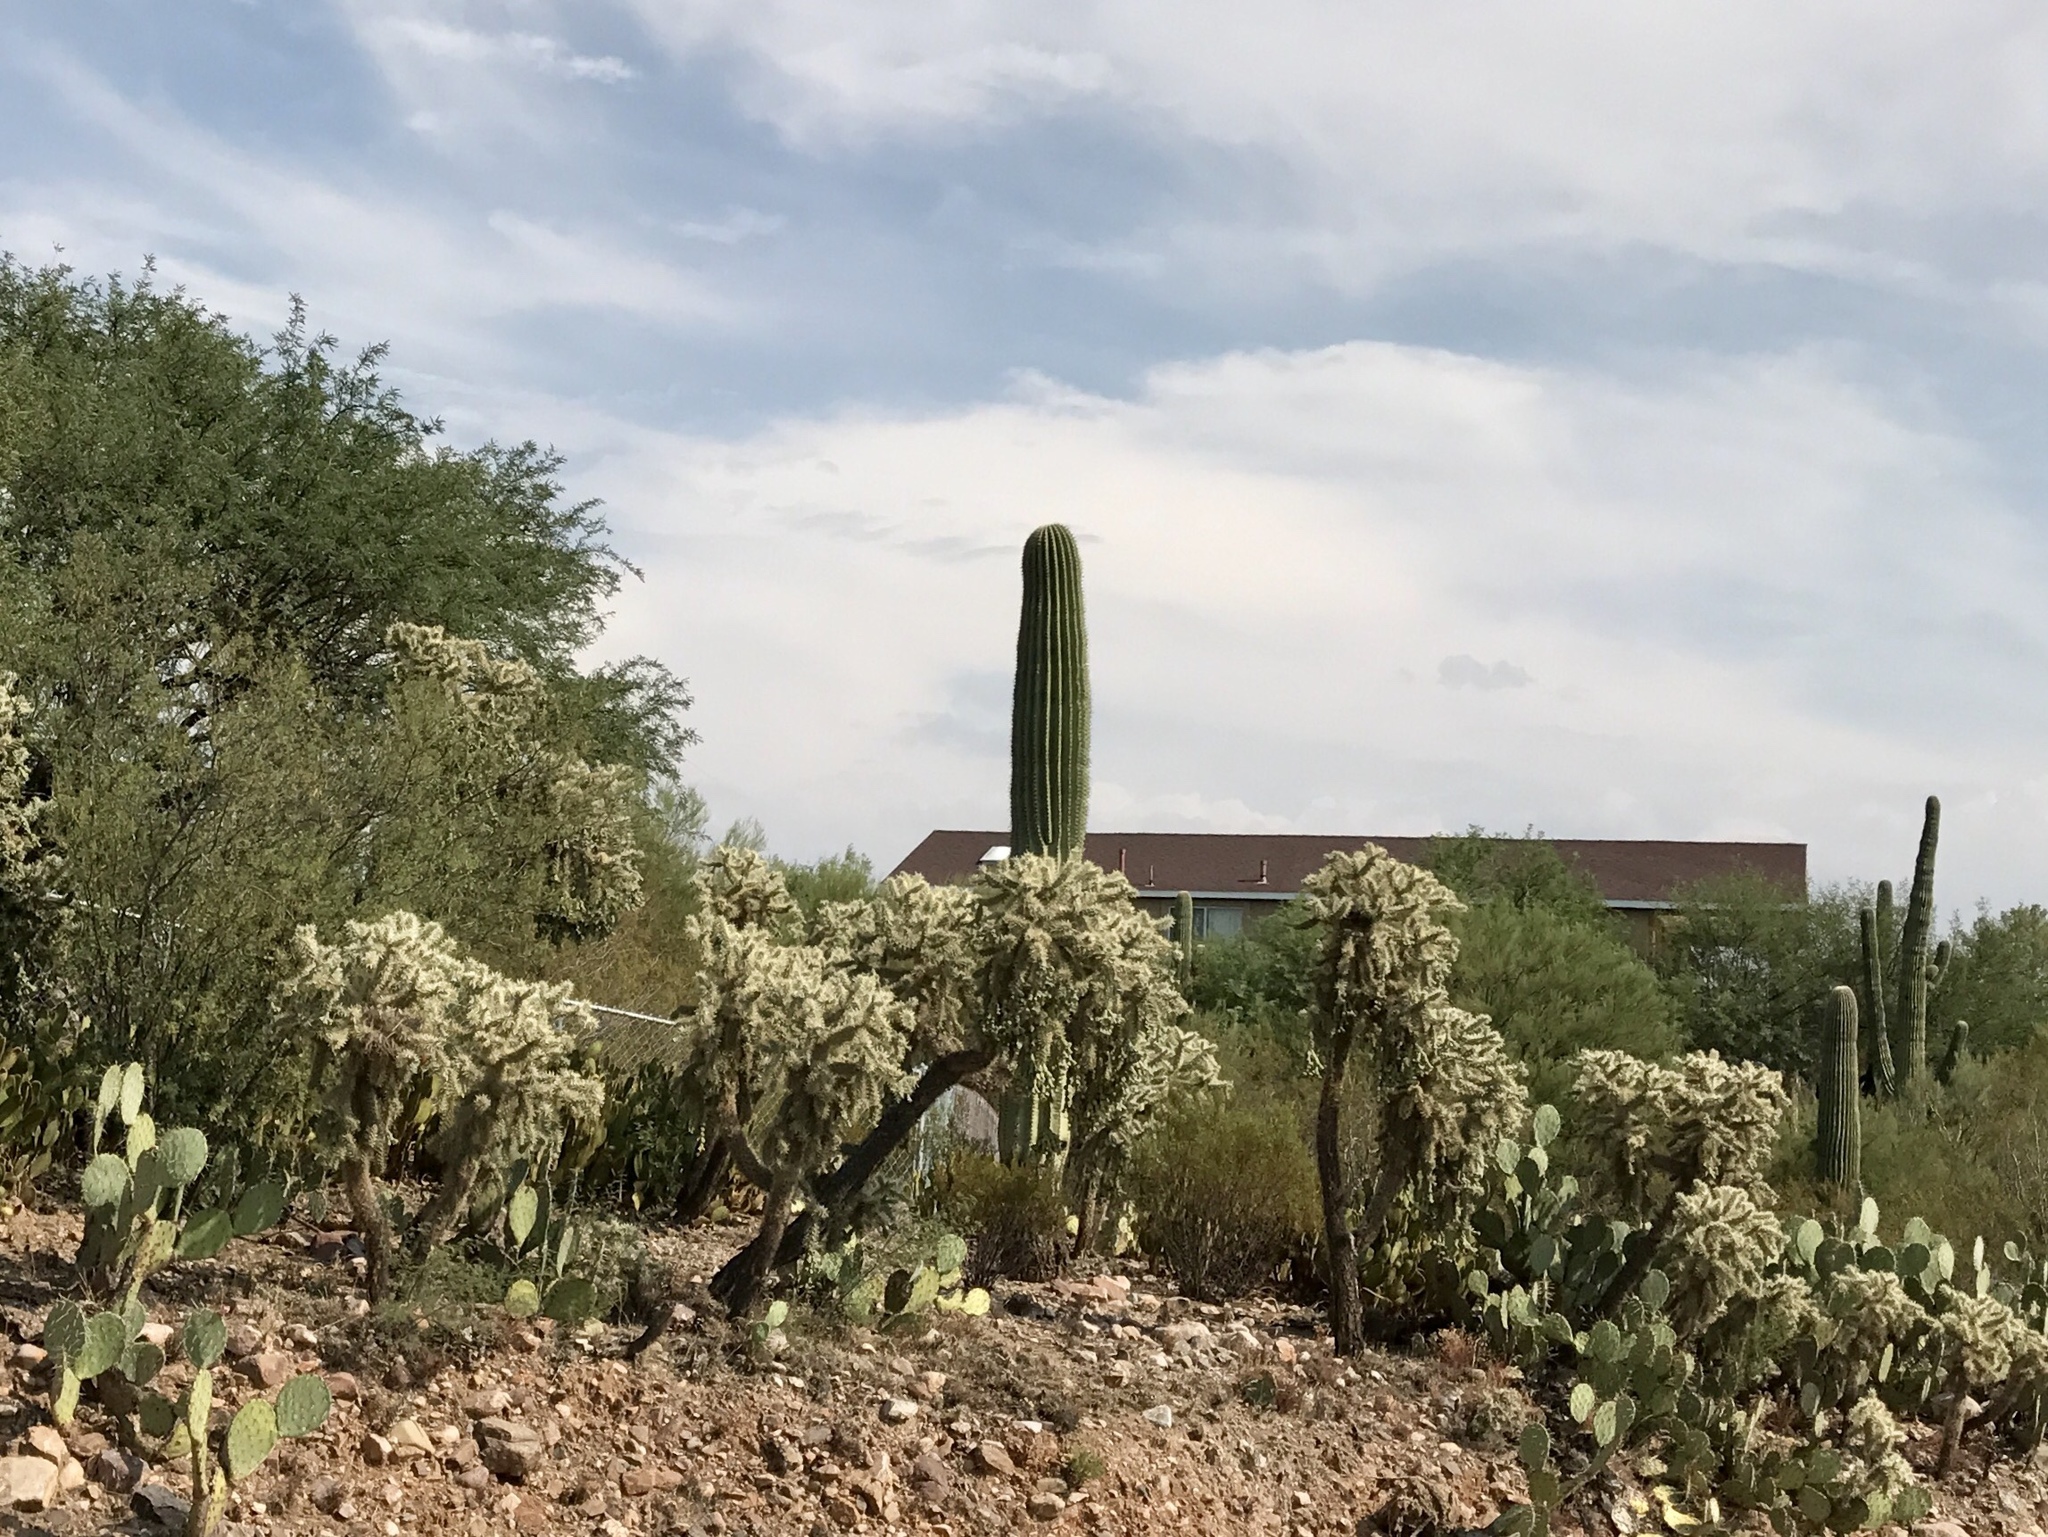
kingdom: Plantae
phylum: Tracheophyta
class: Magnoliopsida
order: Caryophyllales
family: Cactaceae
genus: Cylindropuntia
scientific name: Cylindropuntia fulgida
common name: Jumping cholla
